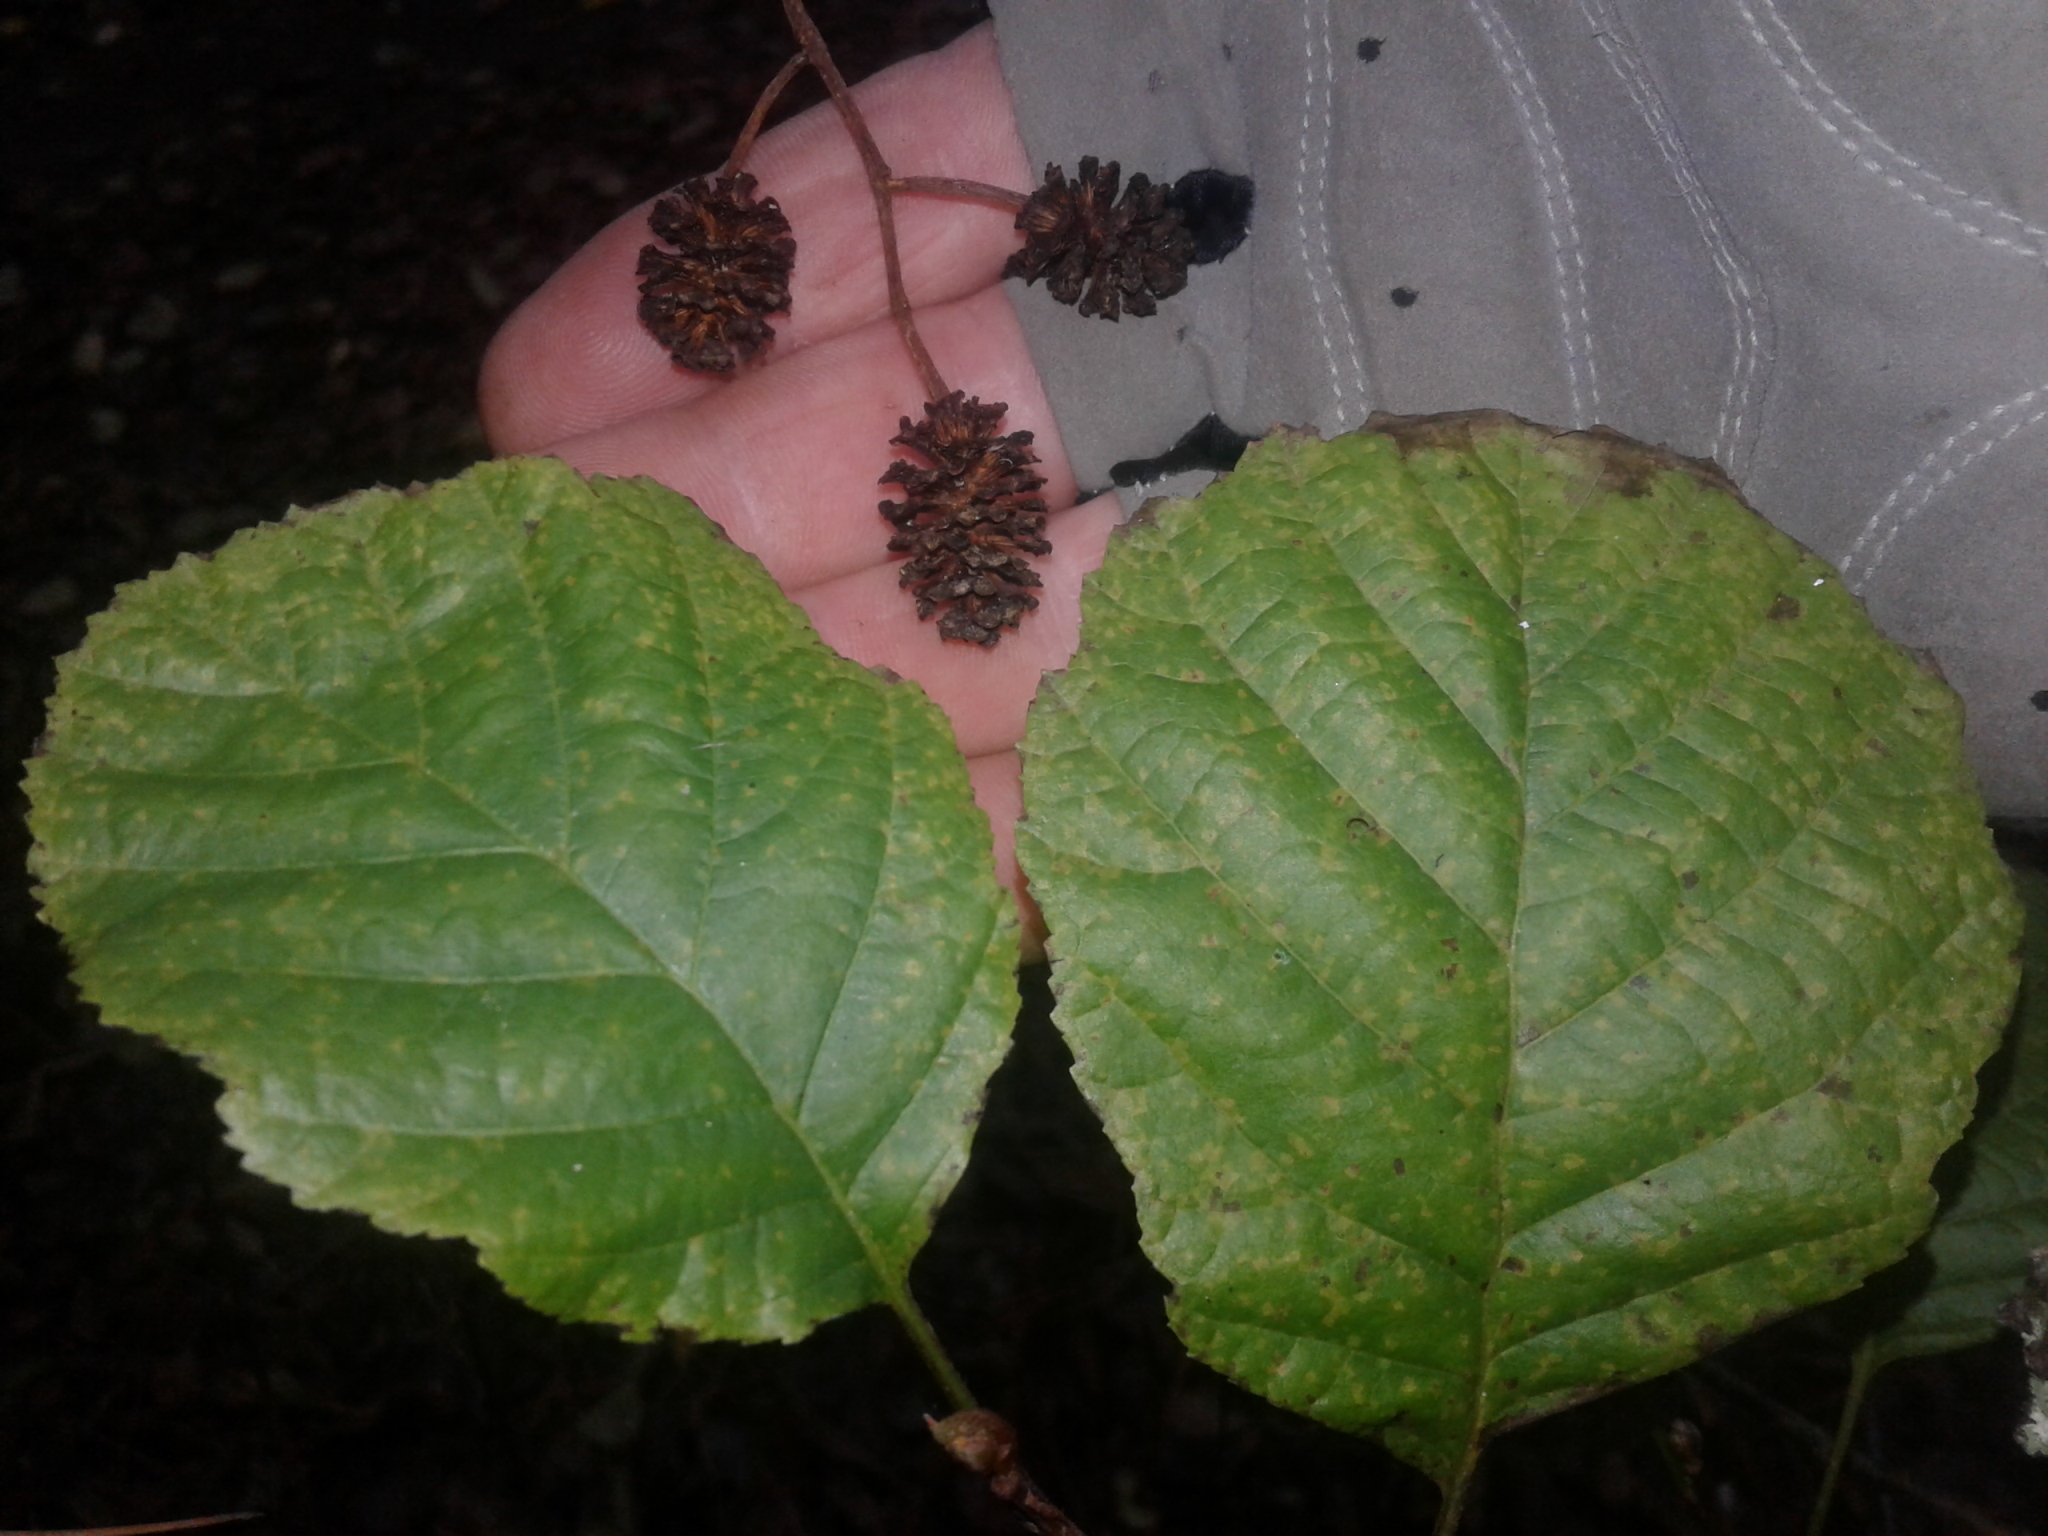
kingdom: Plantae
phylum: Tracheophyta
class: Magnoliopsida
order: Fagales
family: Betulaceae
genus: Alnus
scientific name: Alnus glutinosa
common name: Black alder
